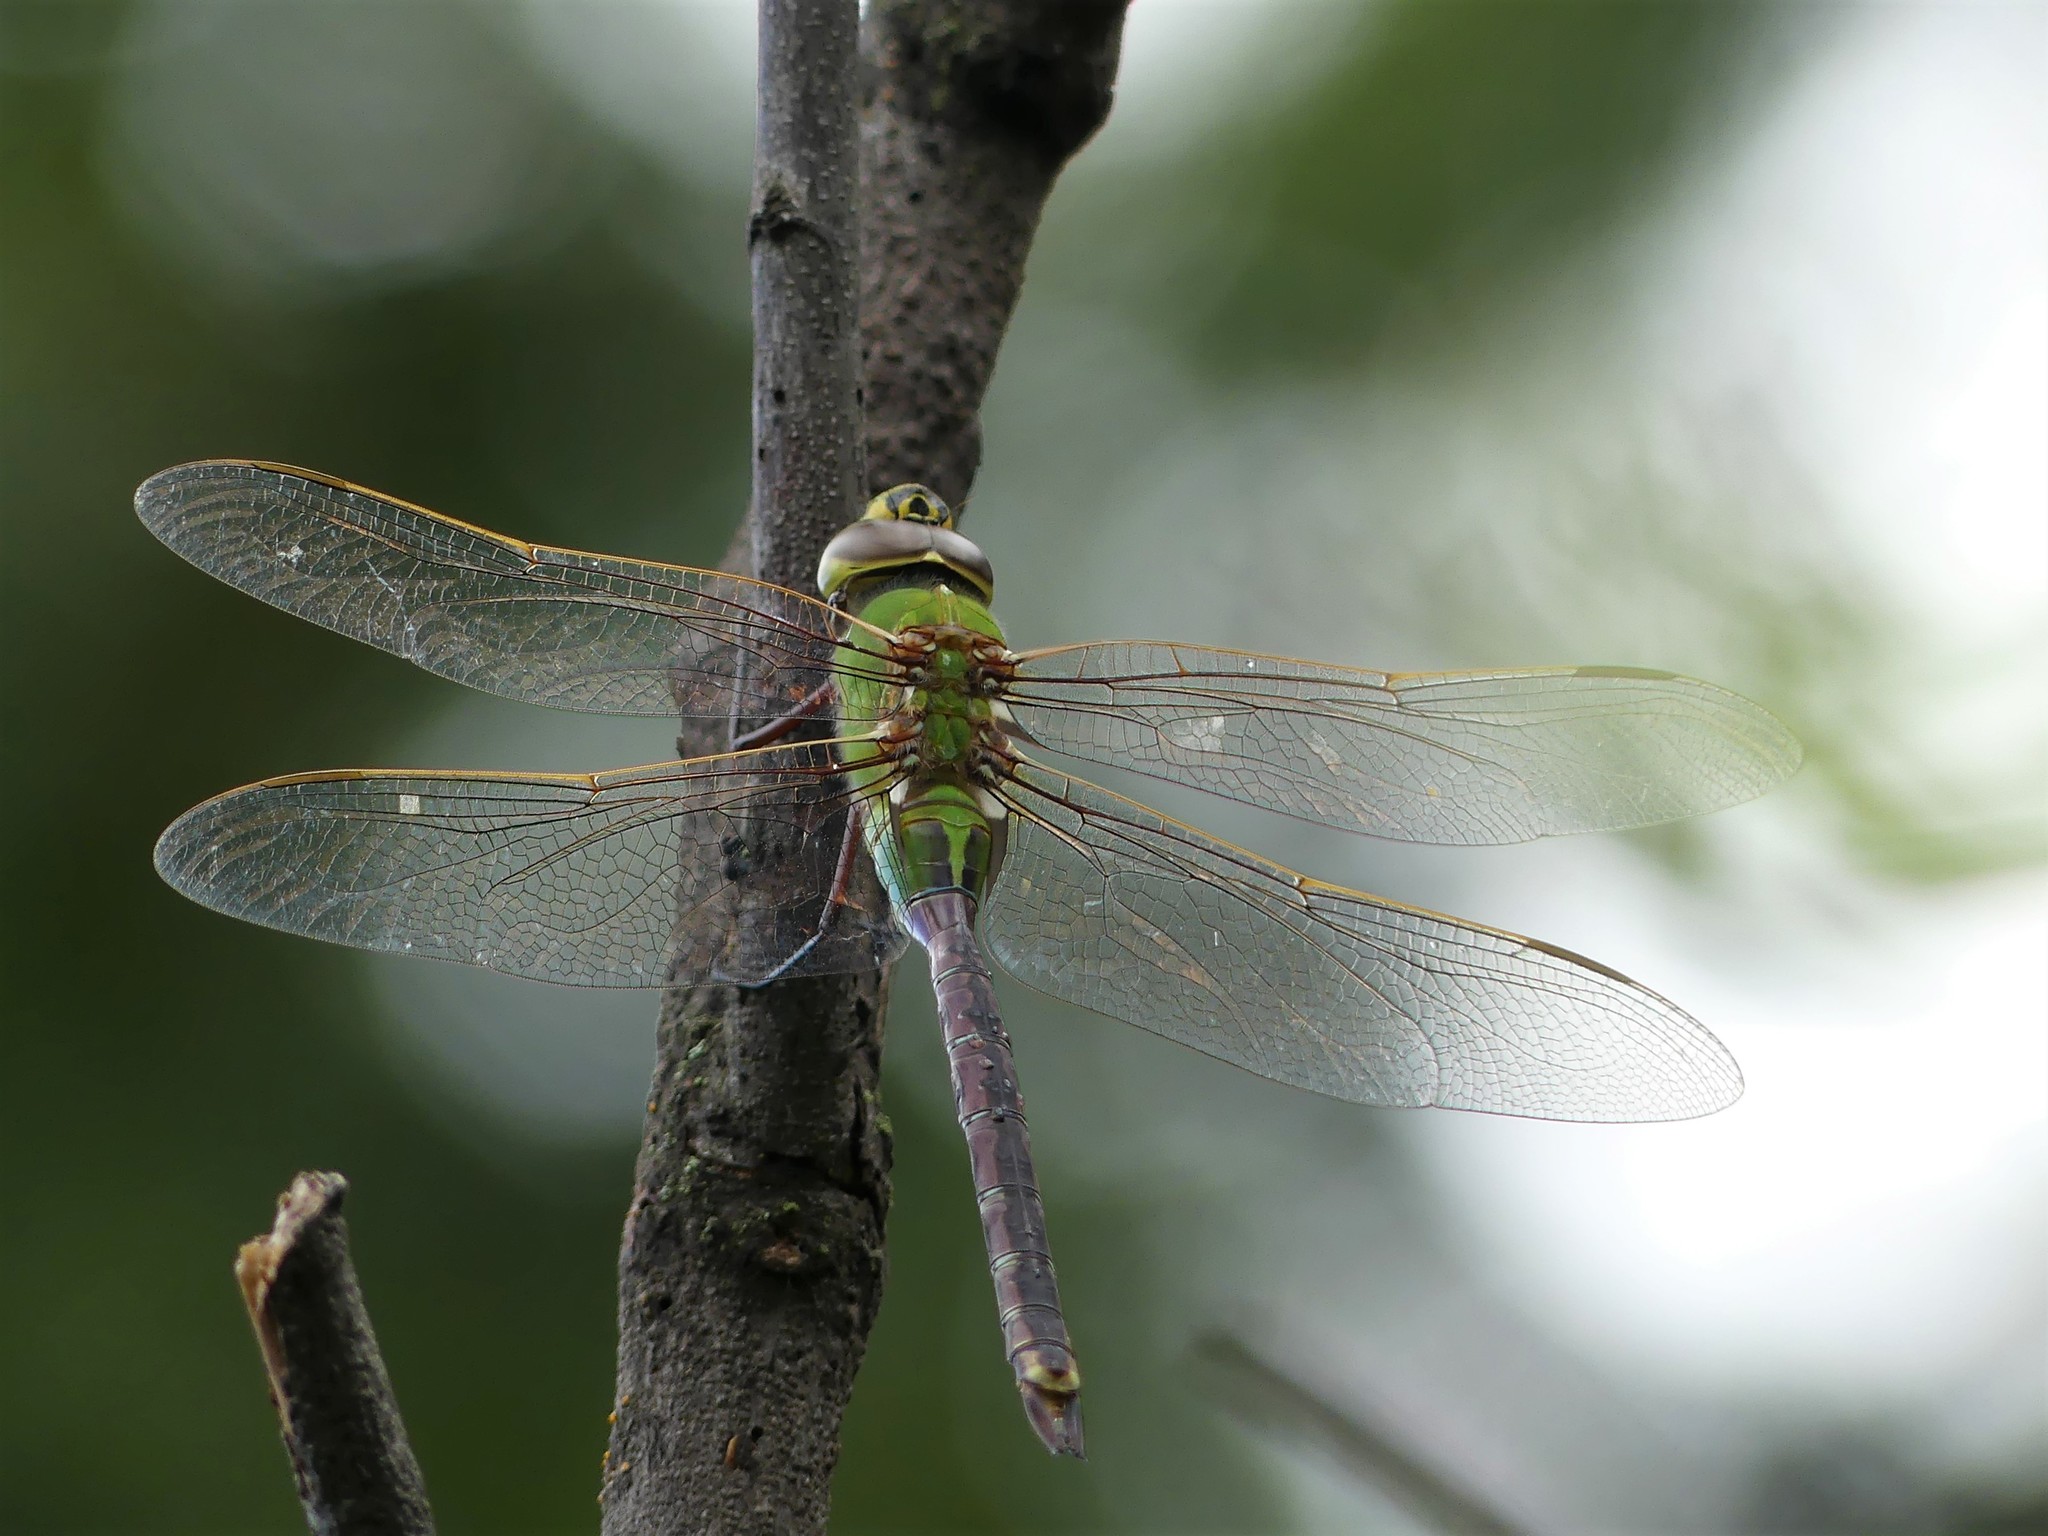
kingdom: Animalia
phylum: Arthropoda
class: Insecta
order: Odonata
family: Aeshnidae
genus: Anax
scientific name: Anax junius
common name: Common green darner
